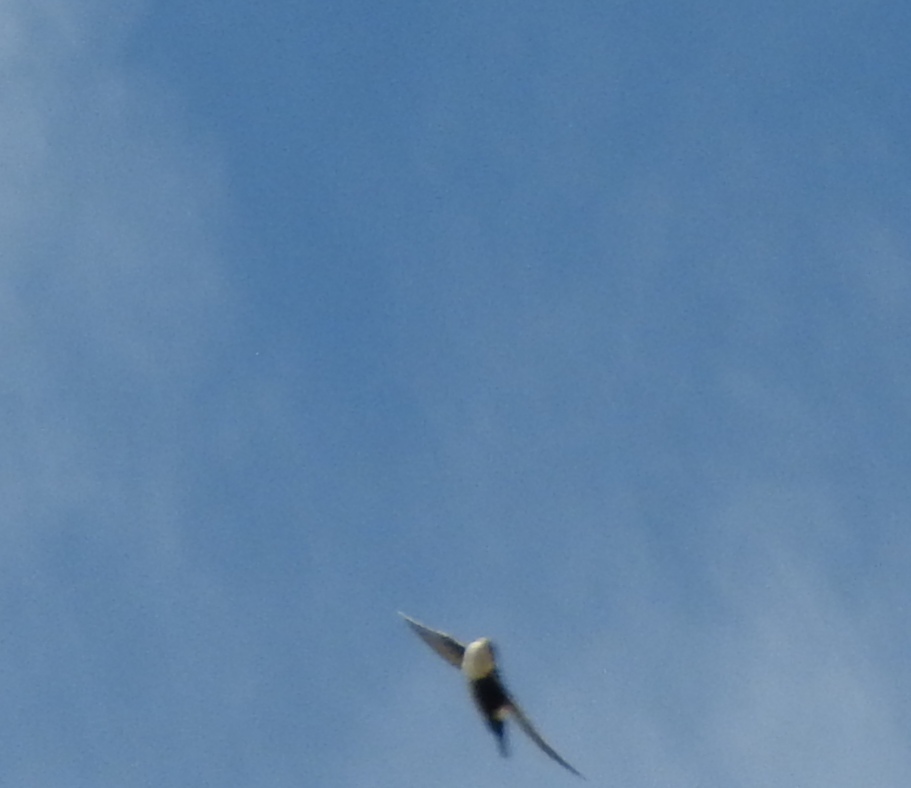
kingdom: Animalia
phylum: Chordata
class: Aves
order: Apodiformes
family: Apodidae
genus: Aeronautes
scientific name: Aeronautes saxatalis
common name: White-throated swift
